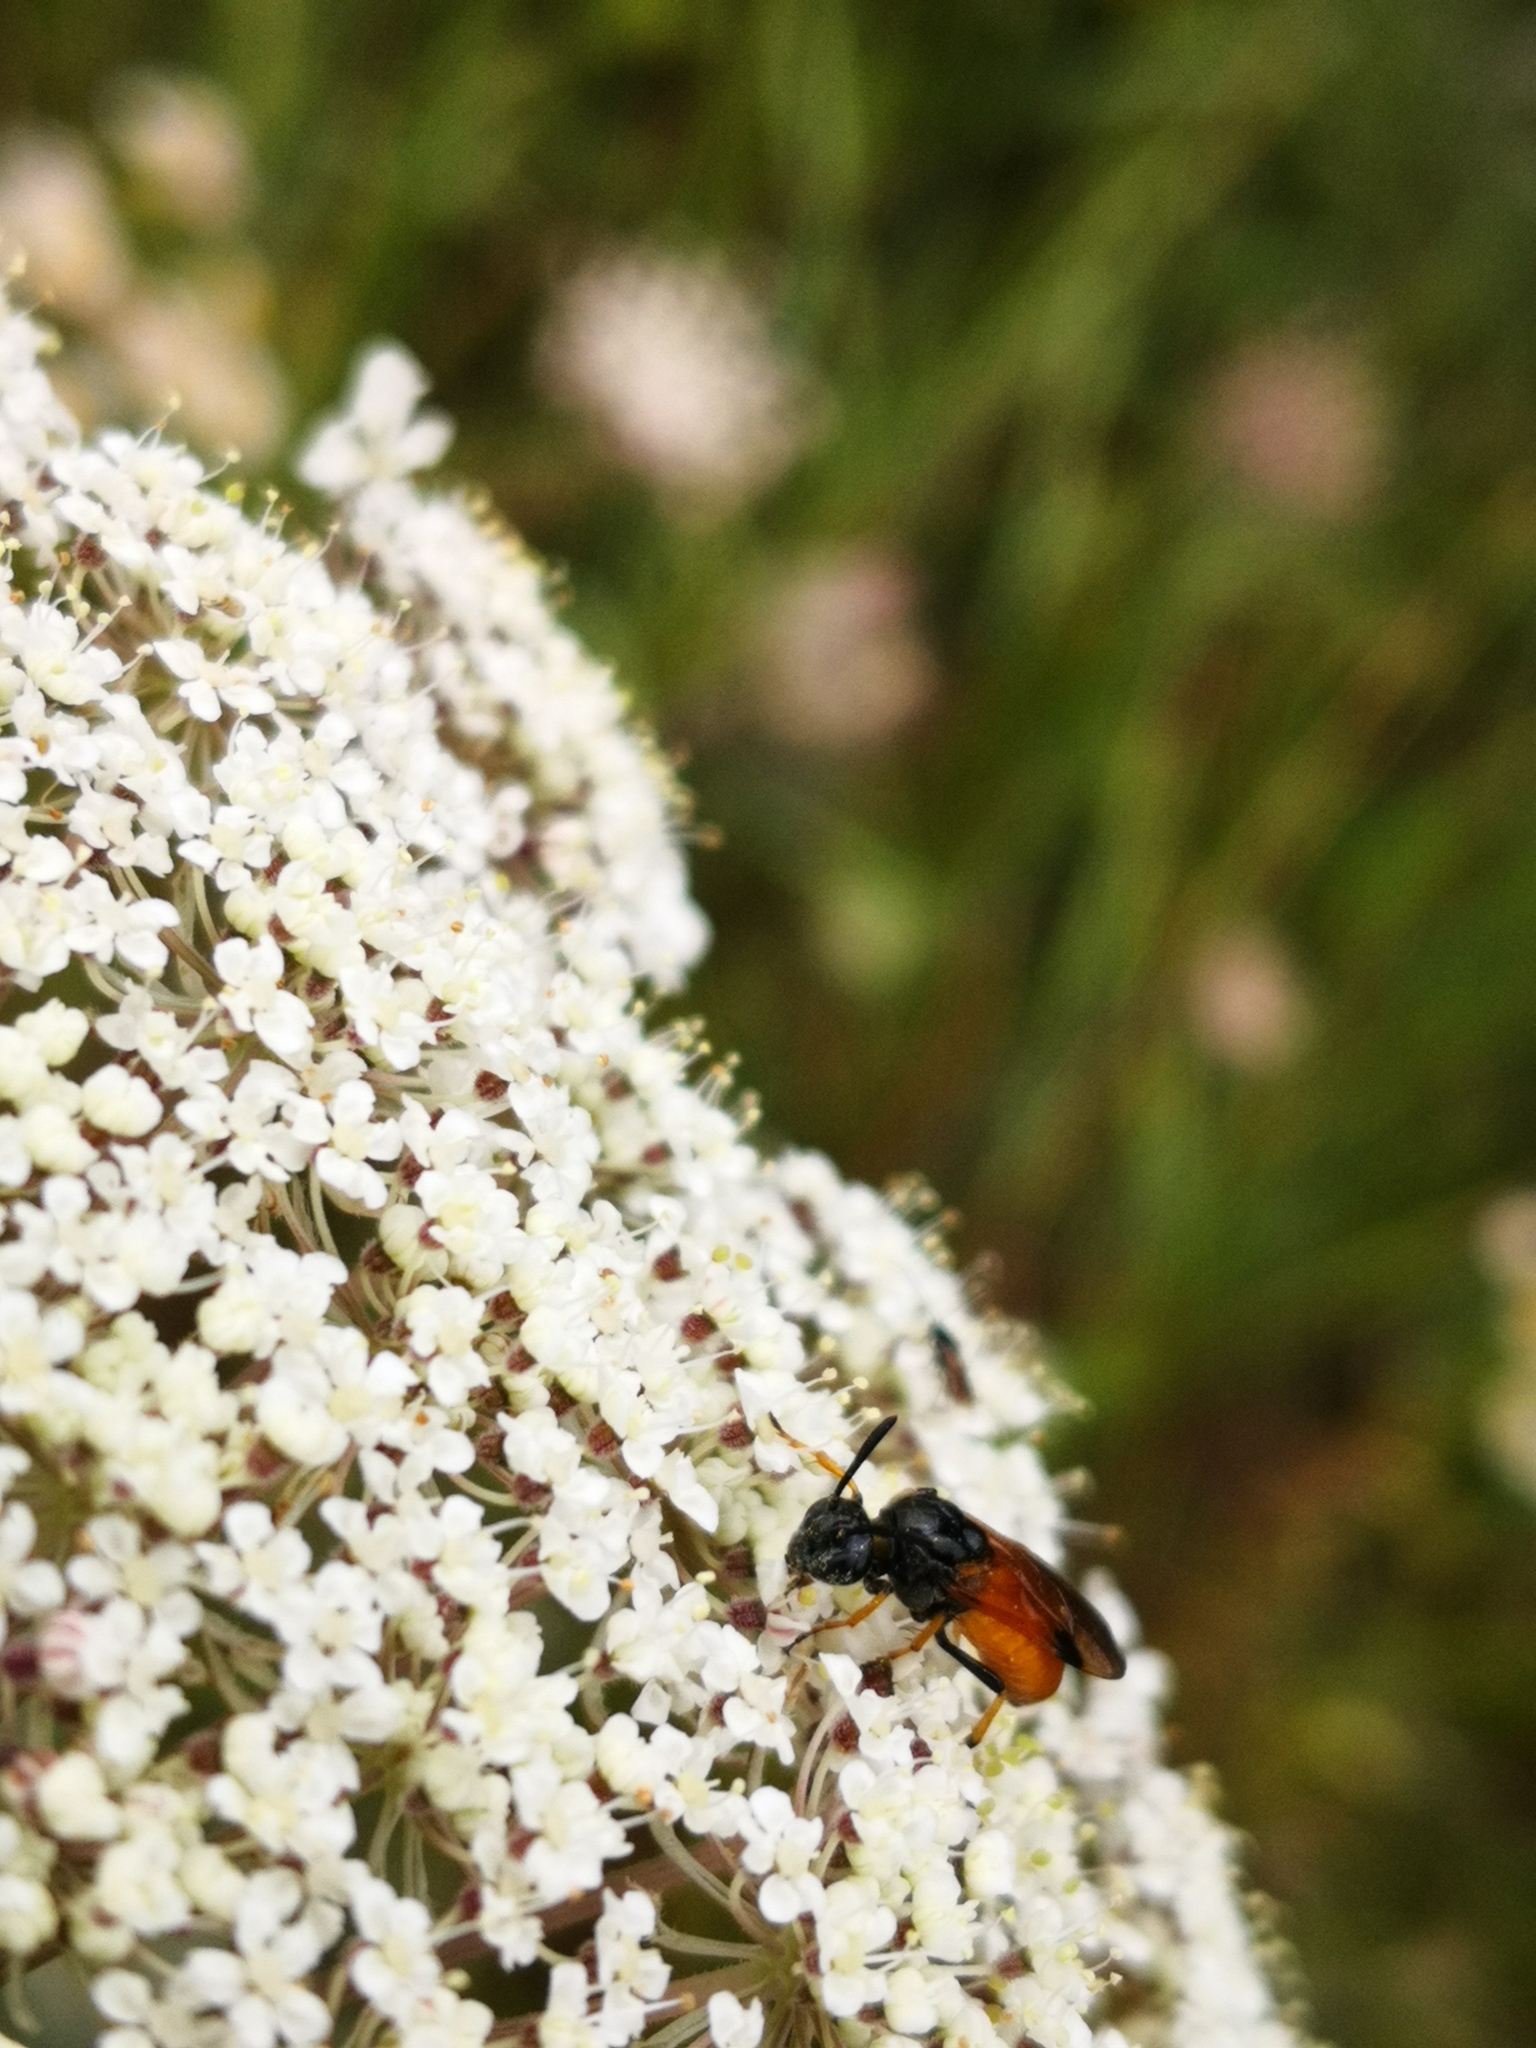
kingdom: Animalia
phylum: Arthropoda
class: Insecta
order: Hymenoptera
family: Argidae
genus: Arge
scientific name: Arge melanochra
